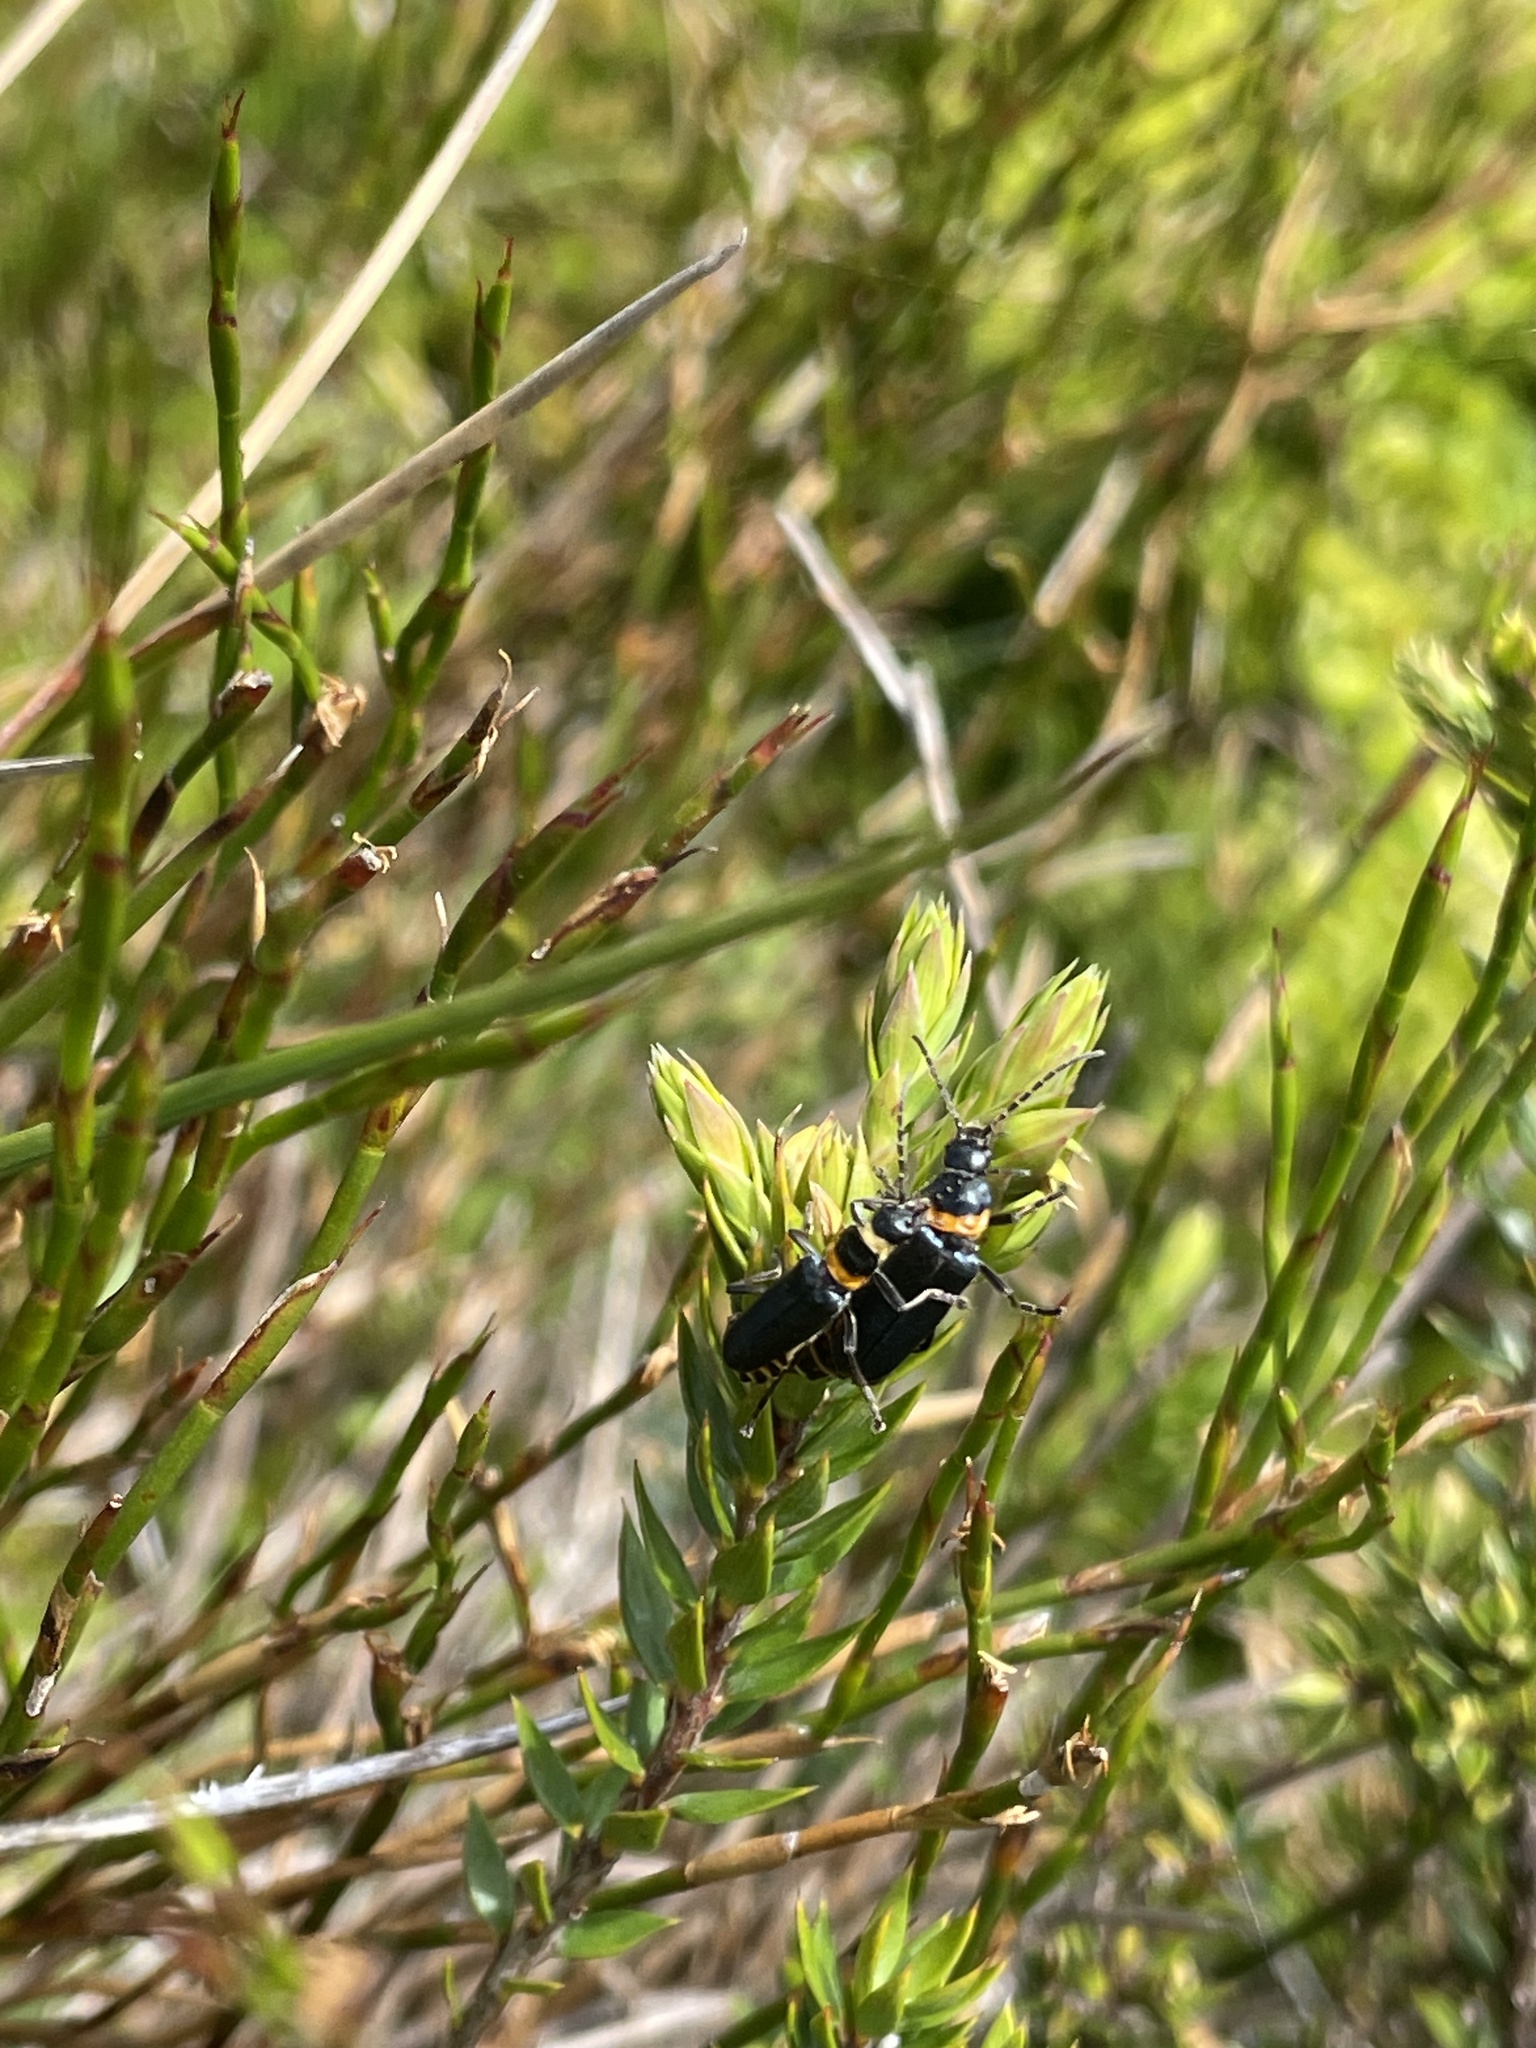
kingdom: Animalia
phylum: Arthropoda
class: Insecta
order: Coleoptera
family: Cantharidae
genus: Chauliognathus
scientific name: Chauliognathus
